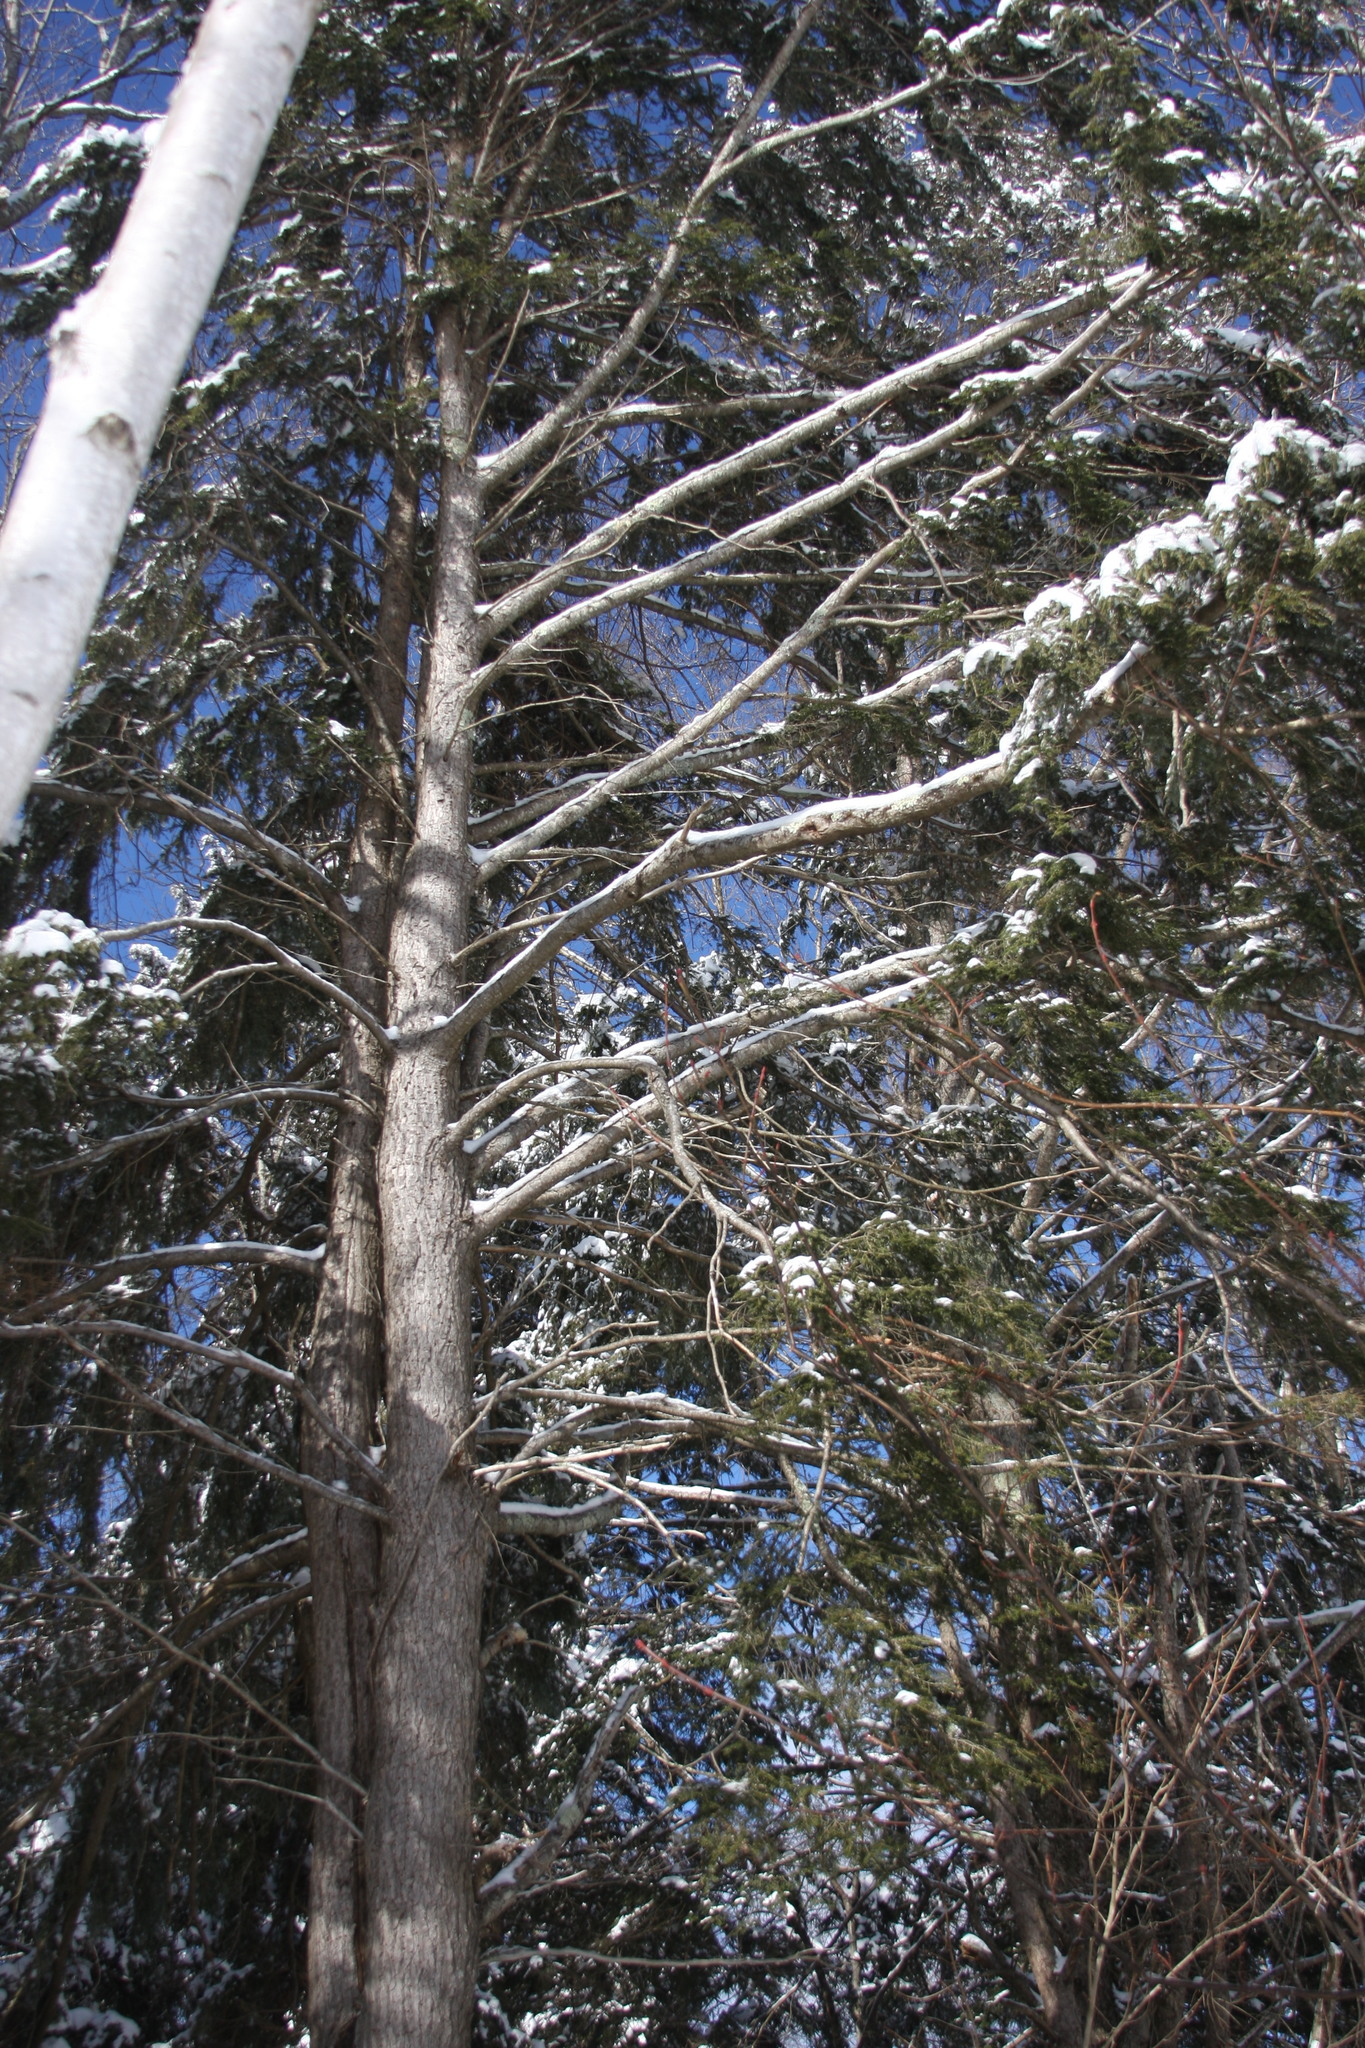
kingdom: Plantae
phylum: Tracheophyta
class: Pinopsida
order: Pinales
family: Pinaceae
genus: Tsuga
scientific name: Tsuga canadensis
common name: Eastern hemlock
